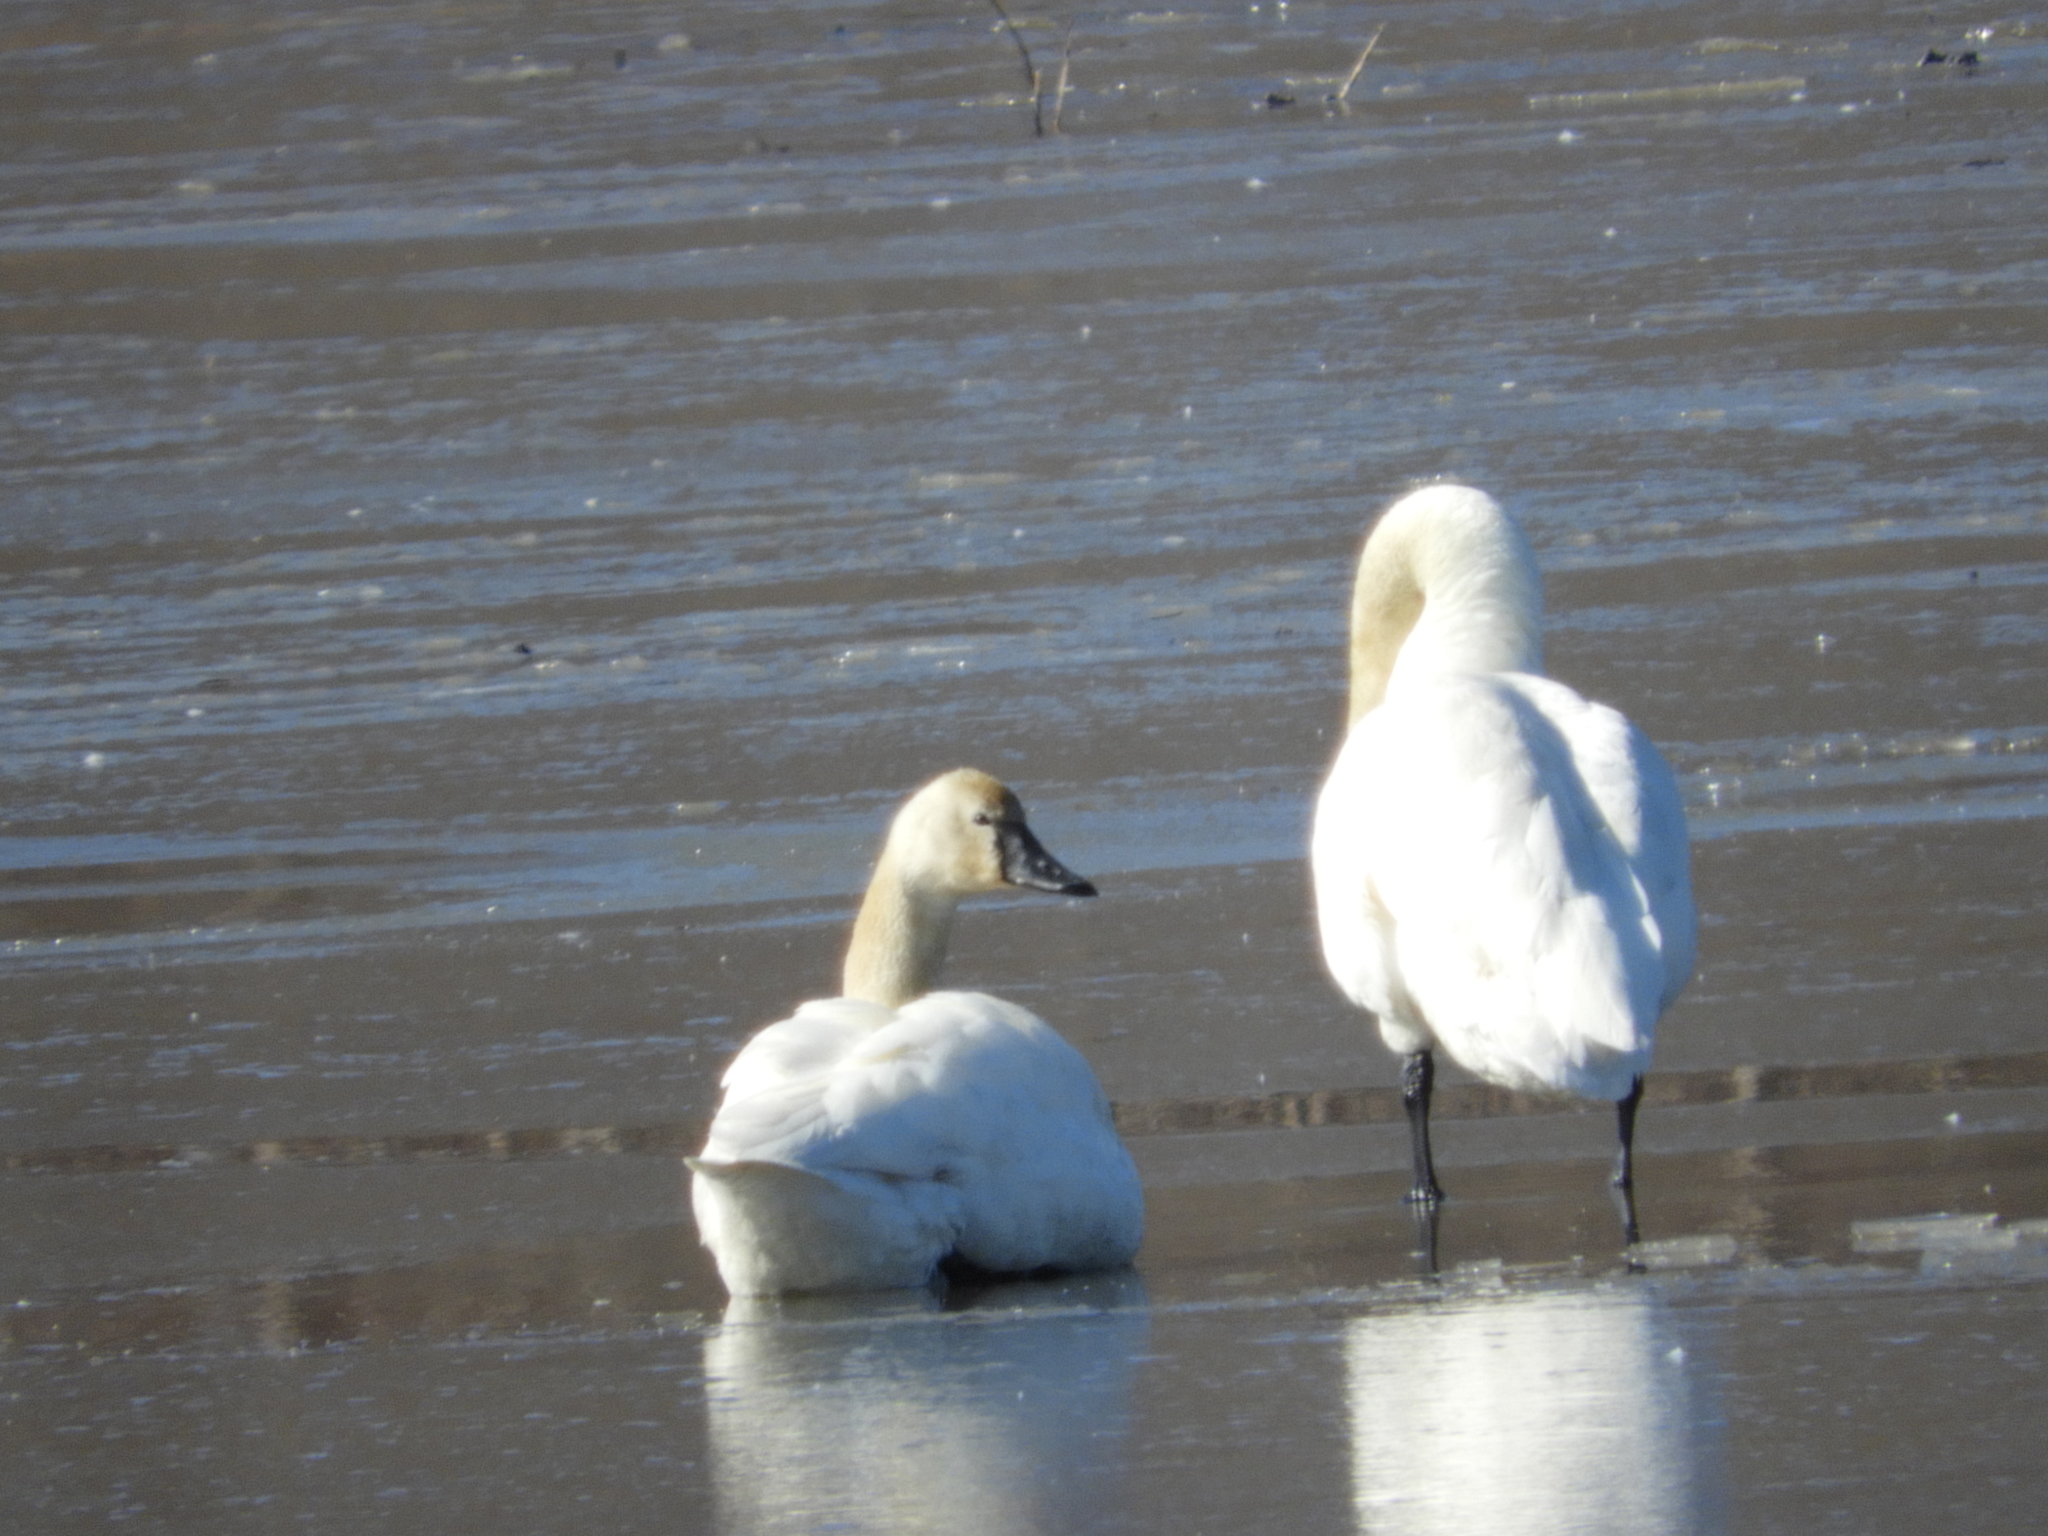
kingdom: Animalia
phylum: Chordata
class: Aves
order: Anseriformes
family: Anatidae
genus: Cygnus
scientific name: Cygnus columbianus
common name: Tundra swan
